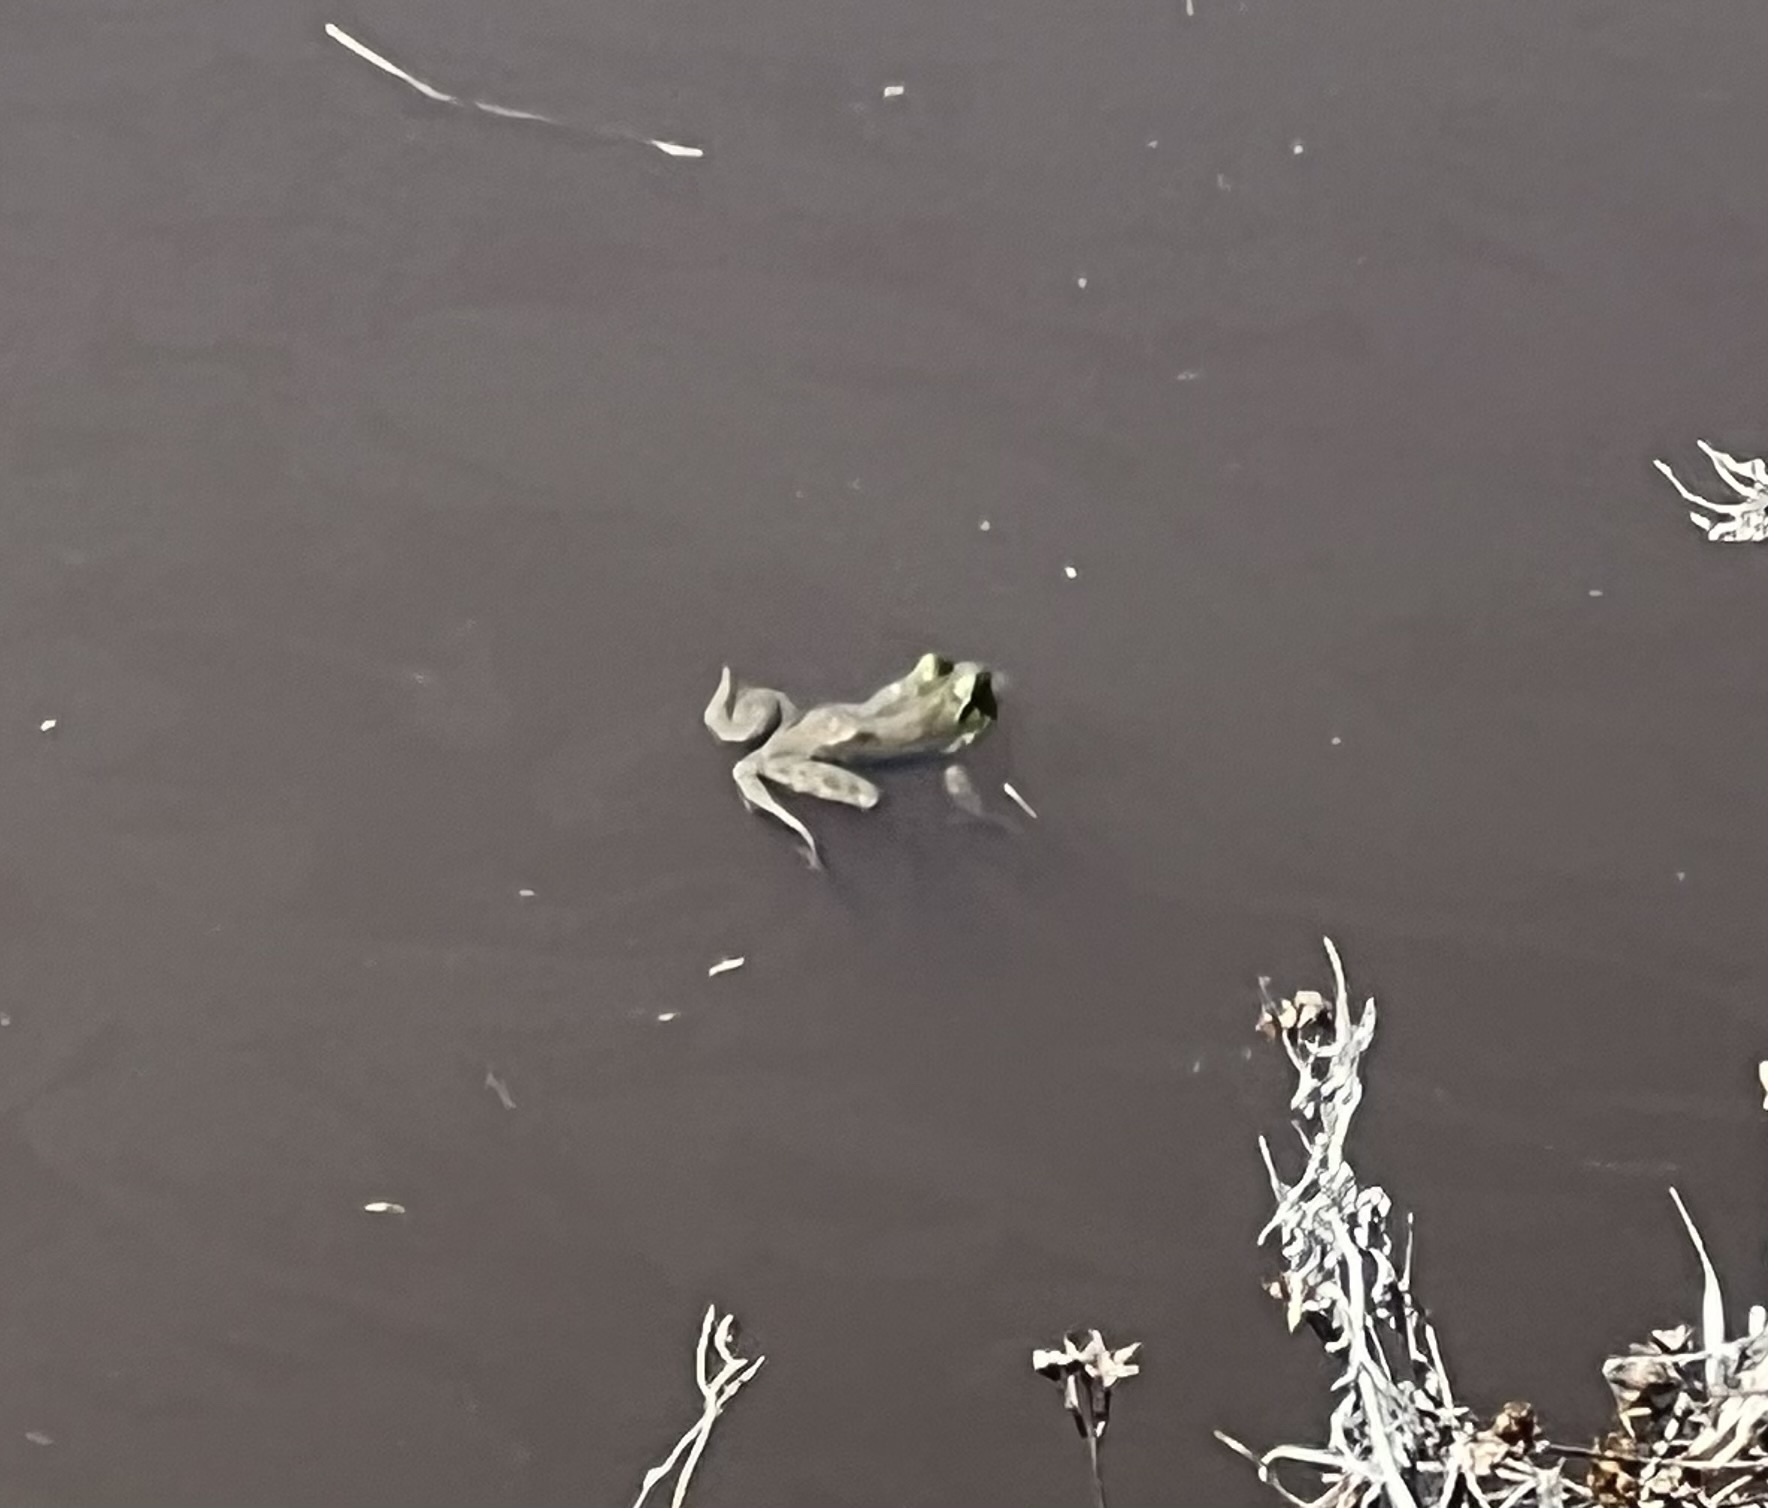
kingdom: Animalia
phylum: Chordata
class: Amphibia
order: Anura
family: Ranidae
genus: Lithobates
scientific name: Lithobates catesbeianus
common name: American bullfrog
